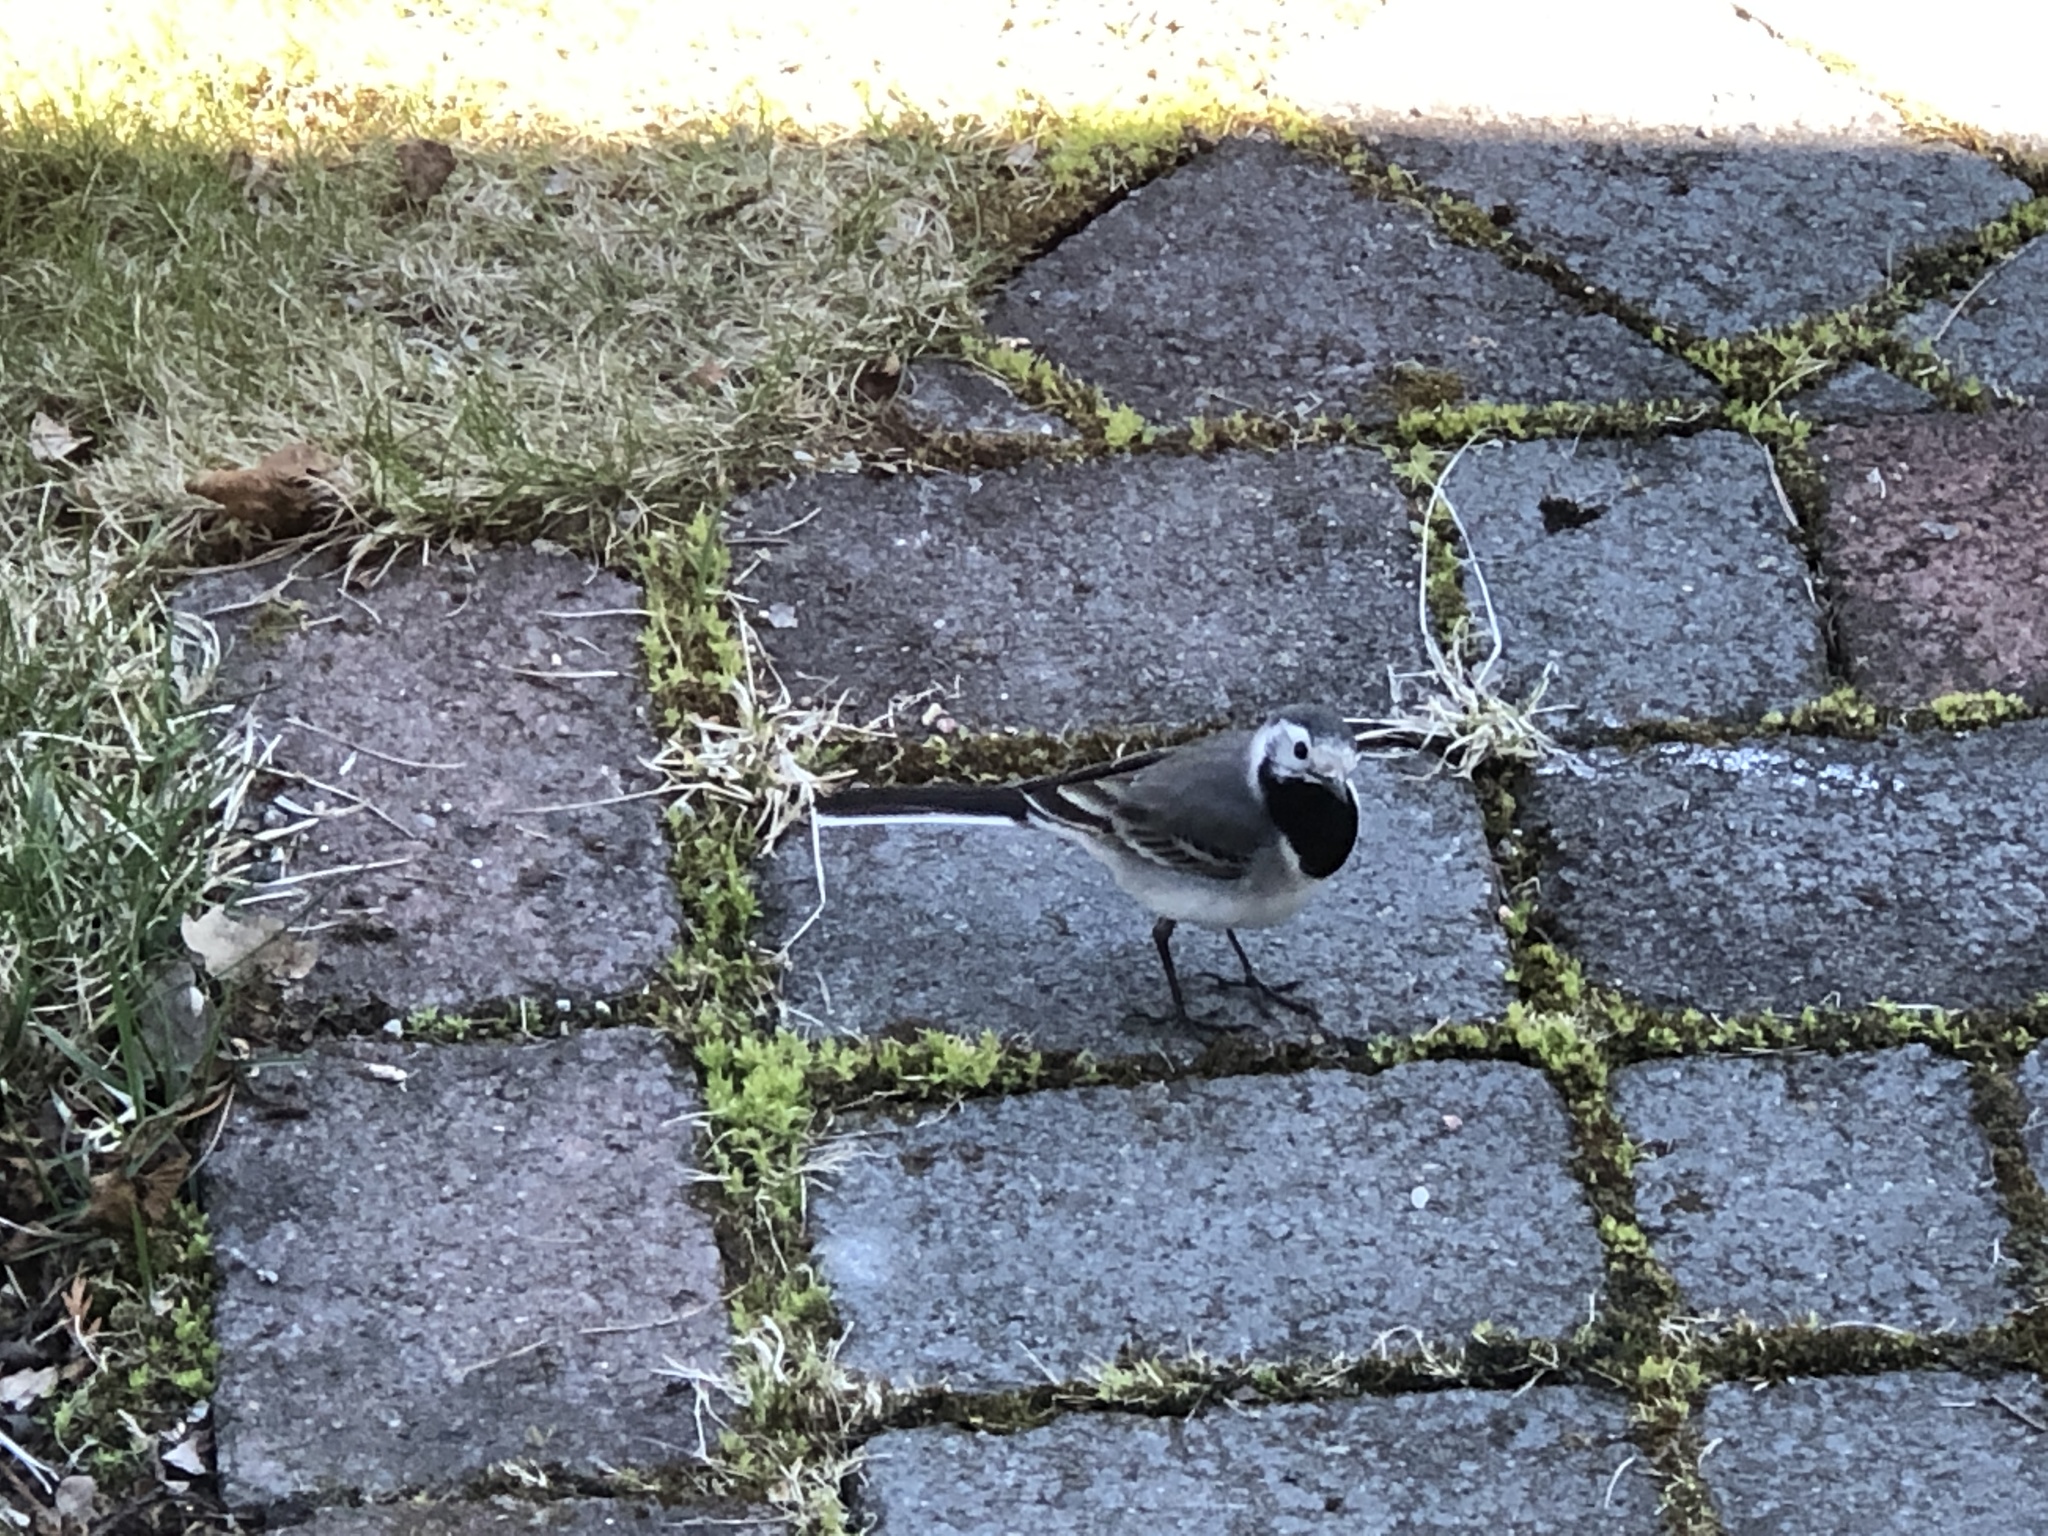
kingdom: Animalia
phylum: Chordata
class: Aves
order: Passeriformes
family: Motacillidae
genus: Motacilla
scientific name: Motacilla alba
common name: White wagtail
